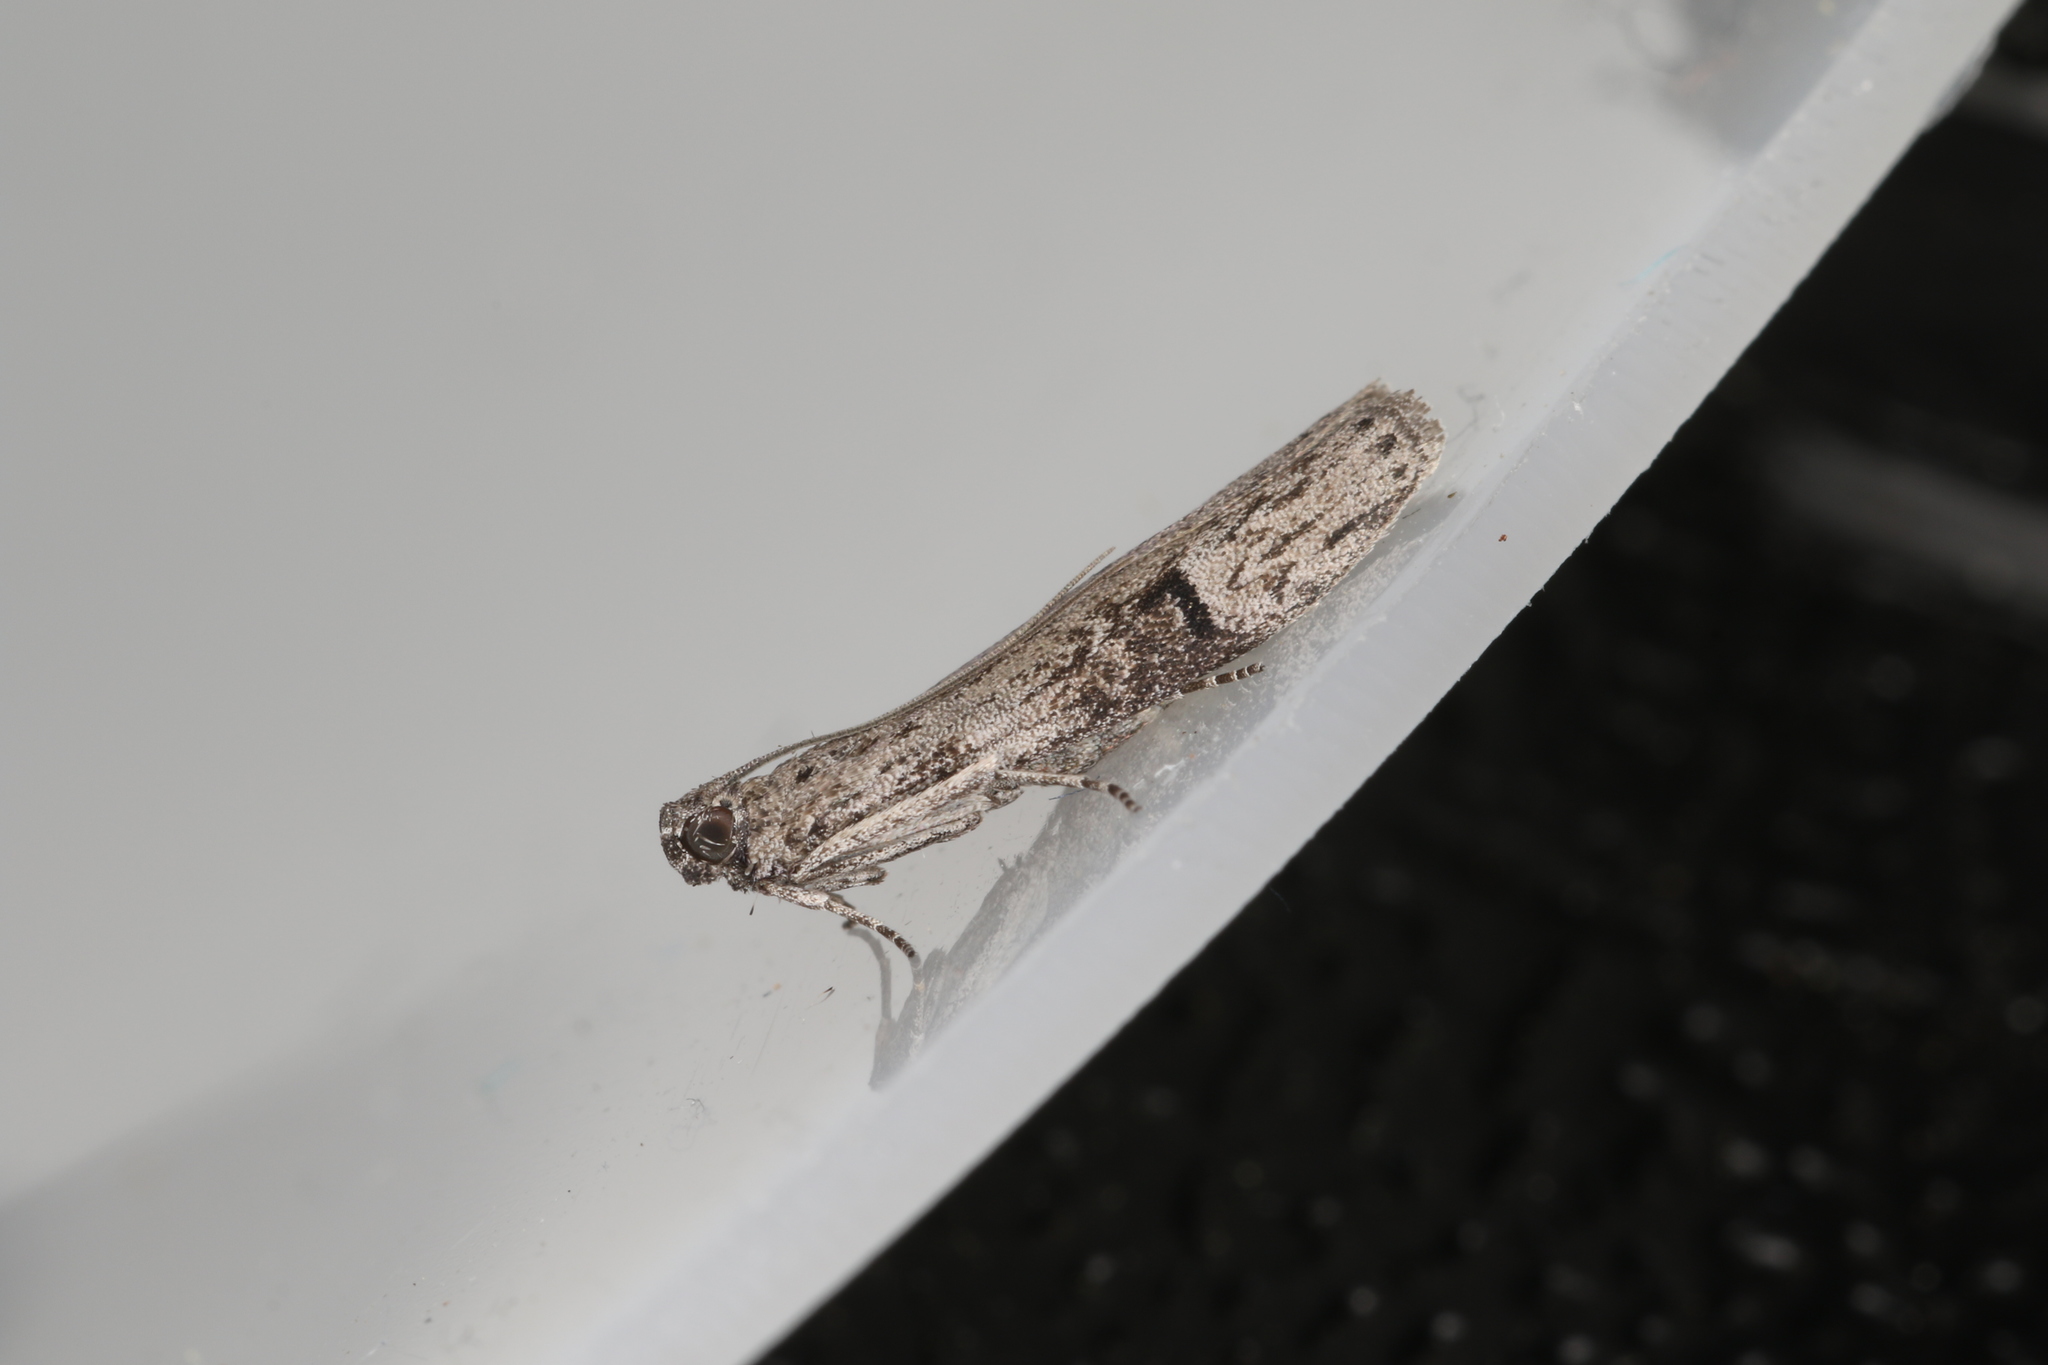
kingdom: Animalia
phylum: Arthropoda
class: Insecta
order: Lepidoptera
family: Pyralidae
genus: Copamyntis
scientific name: Copamyntis leptocosma
